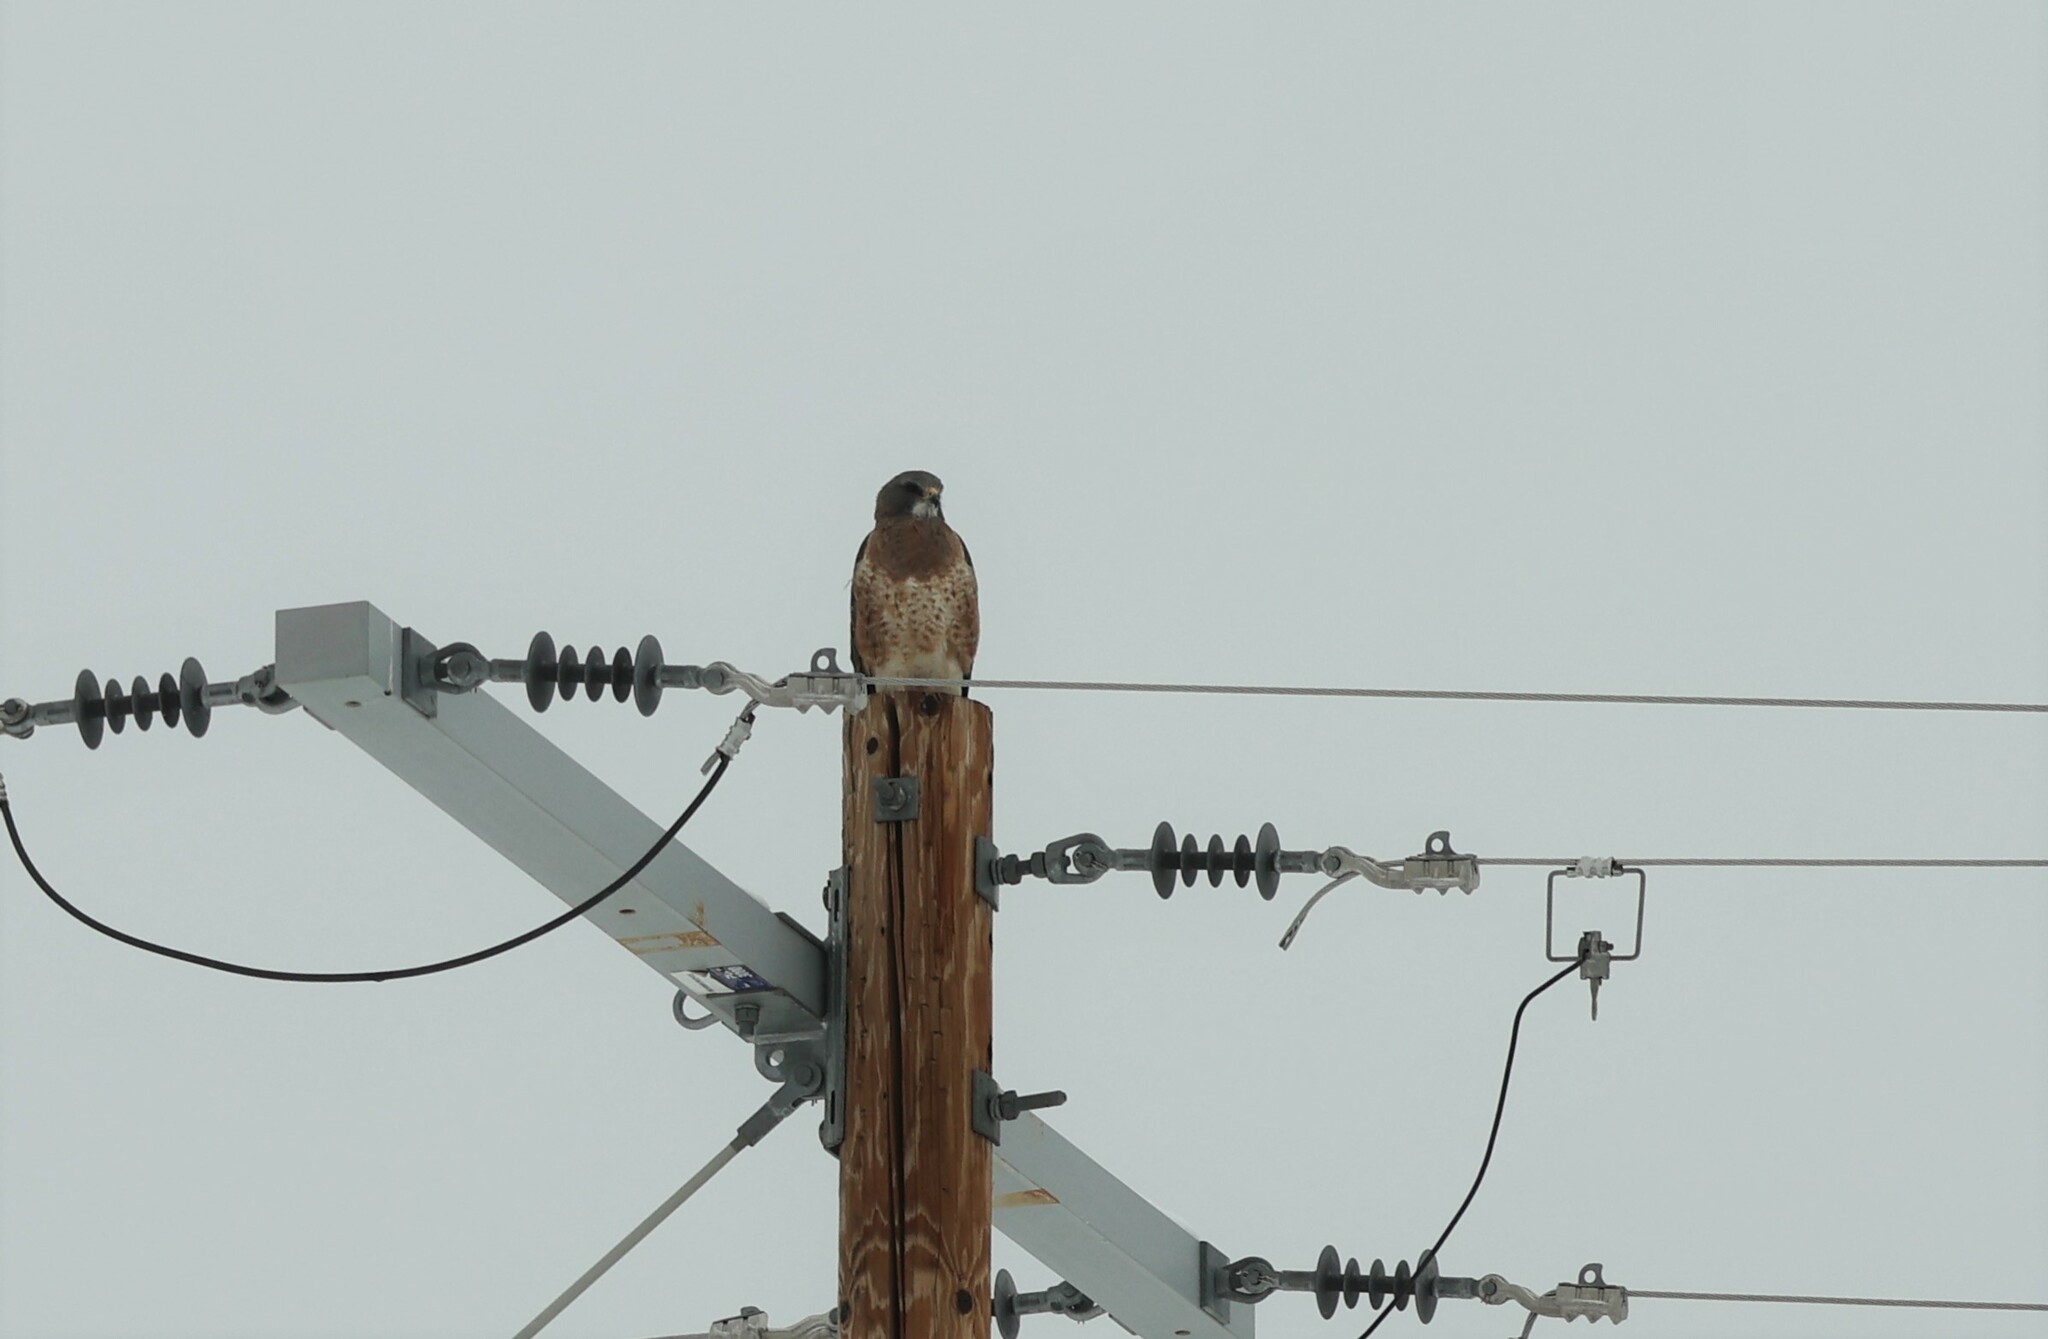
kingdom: Animalia
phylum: Chordata
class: Aves
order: Accipitriformes
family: Accipitridae
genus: Buteo
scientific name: Buteo swainsoni
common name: Swainson's hawk
